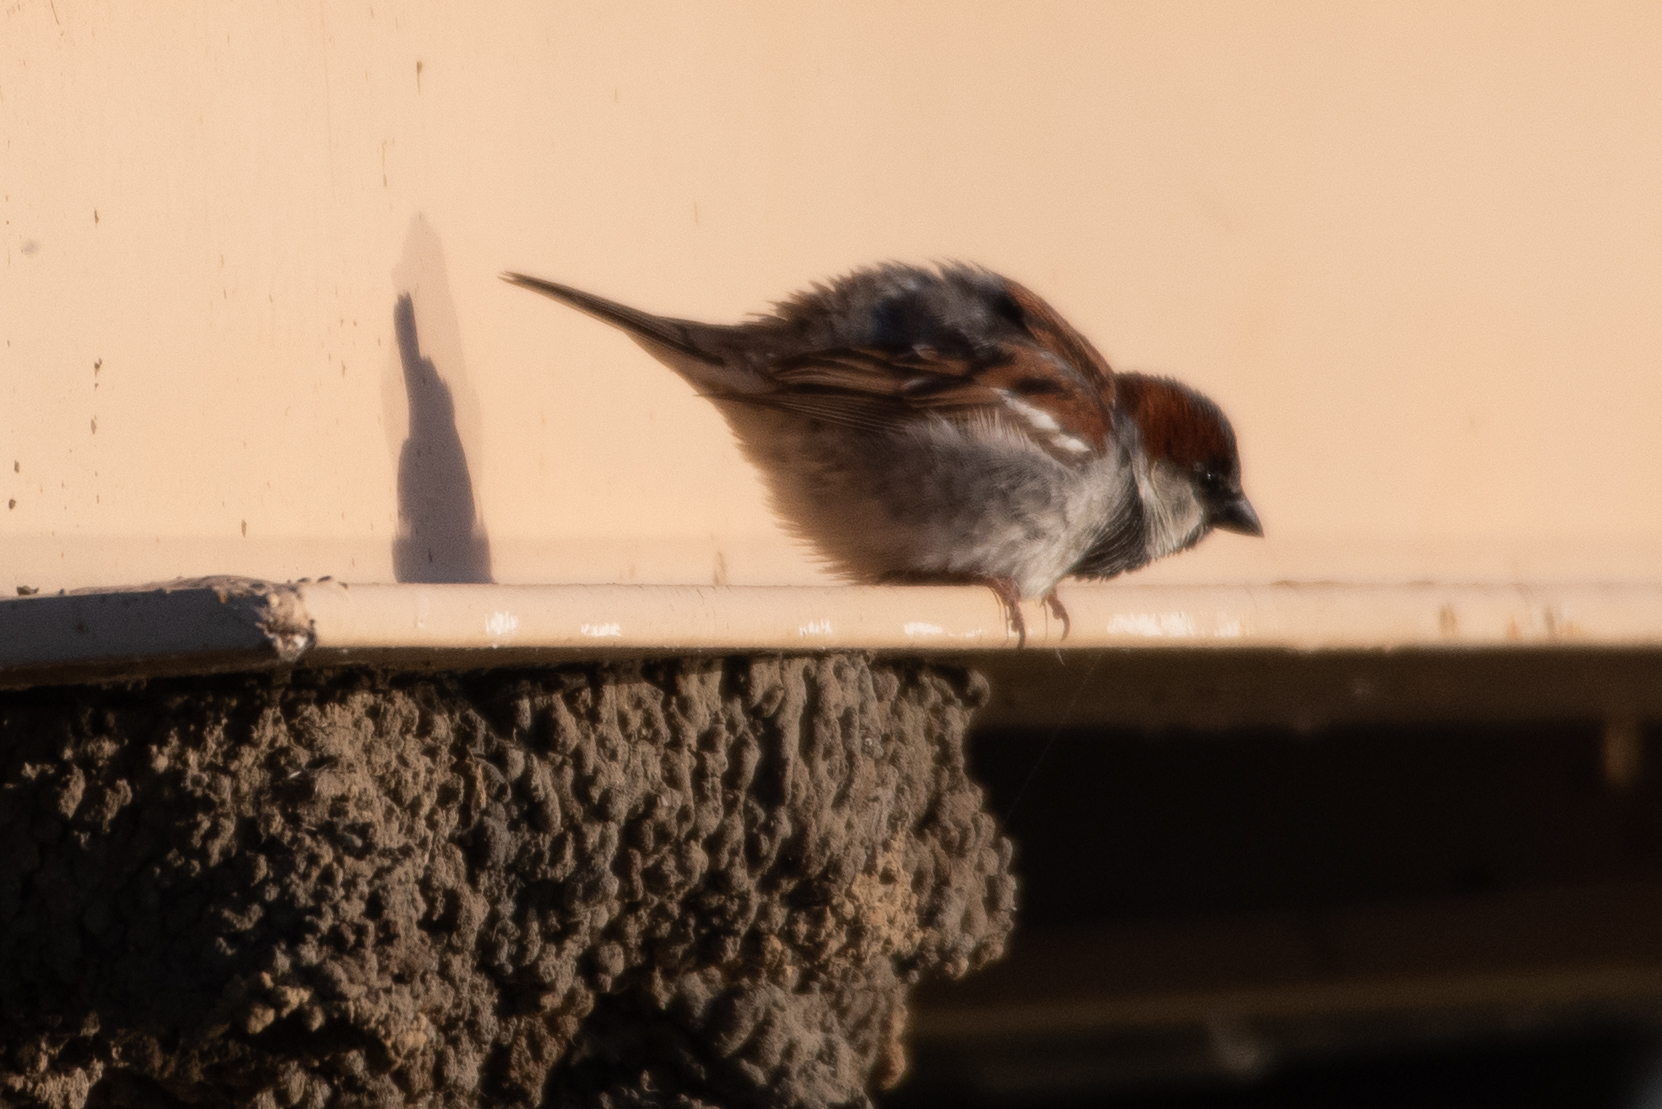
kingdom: Animalia
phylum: Chordata
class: Aves
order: Passeriformes
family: Passeridae
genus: Passer
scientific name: Passer domesticus
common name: House sparrow
